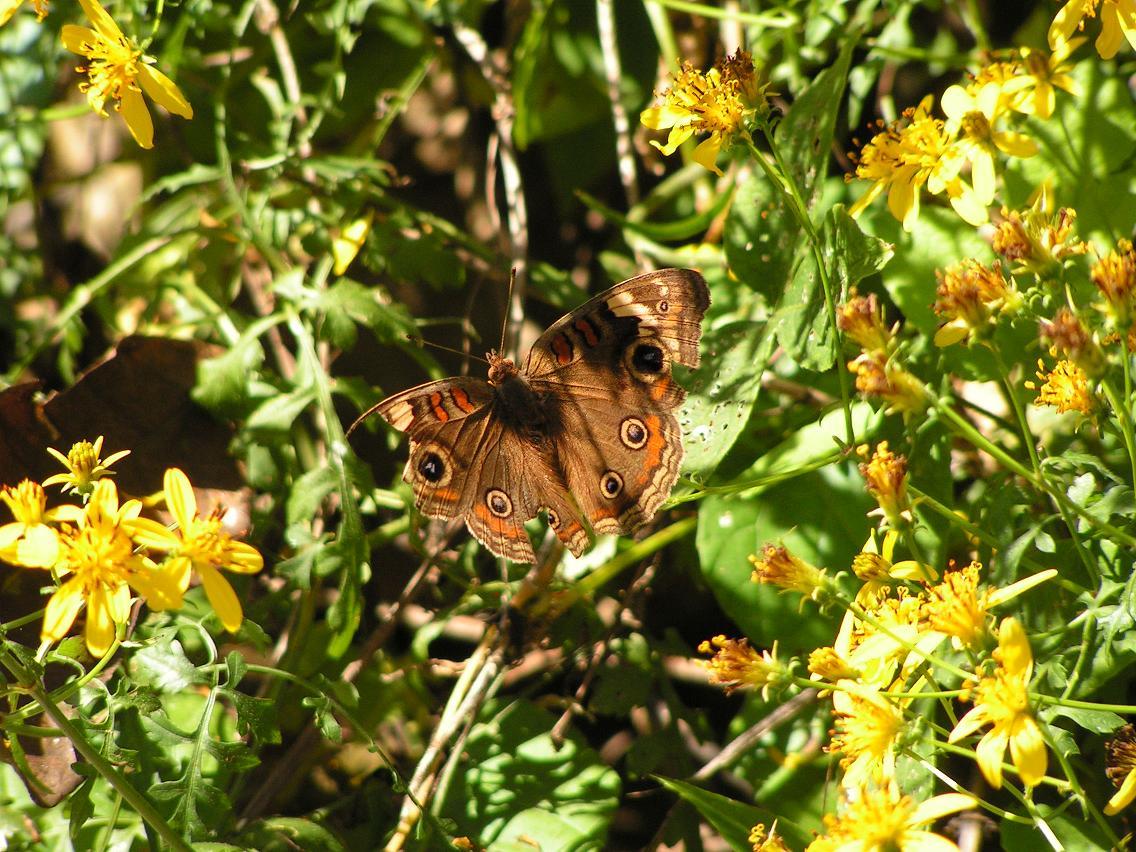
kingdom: Animalia
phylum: Arthropoda
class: Insecta
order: Lepidoptera
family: Nymphalidae
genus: Junonia
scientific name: Junonia
